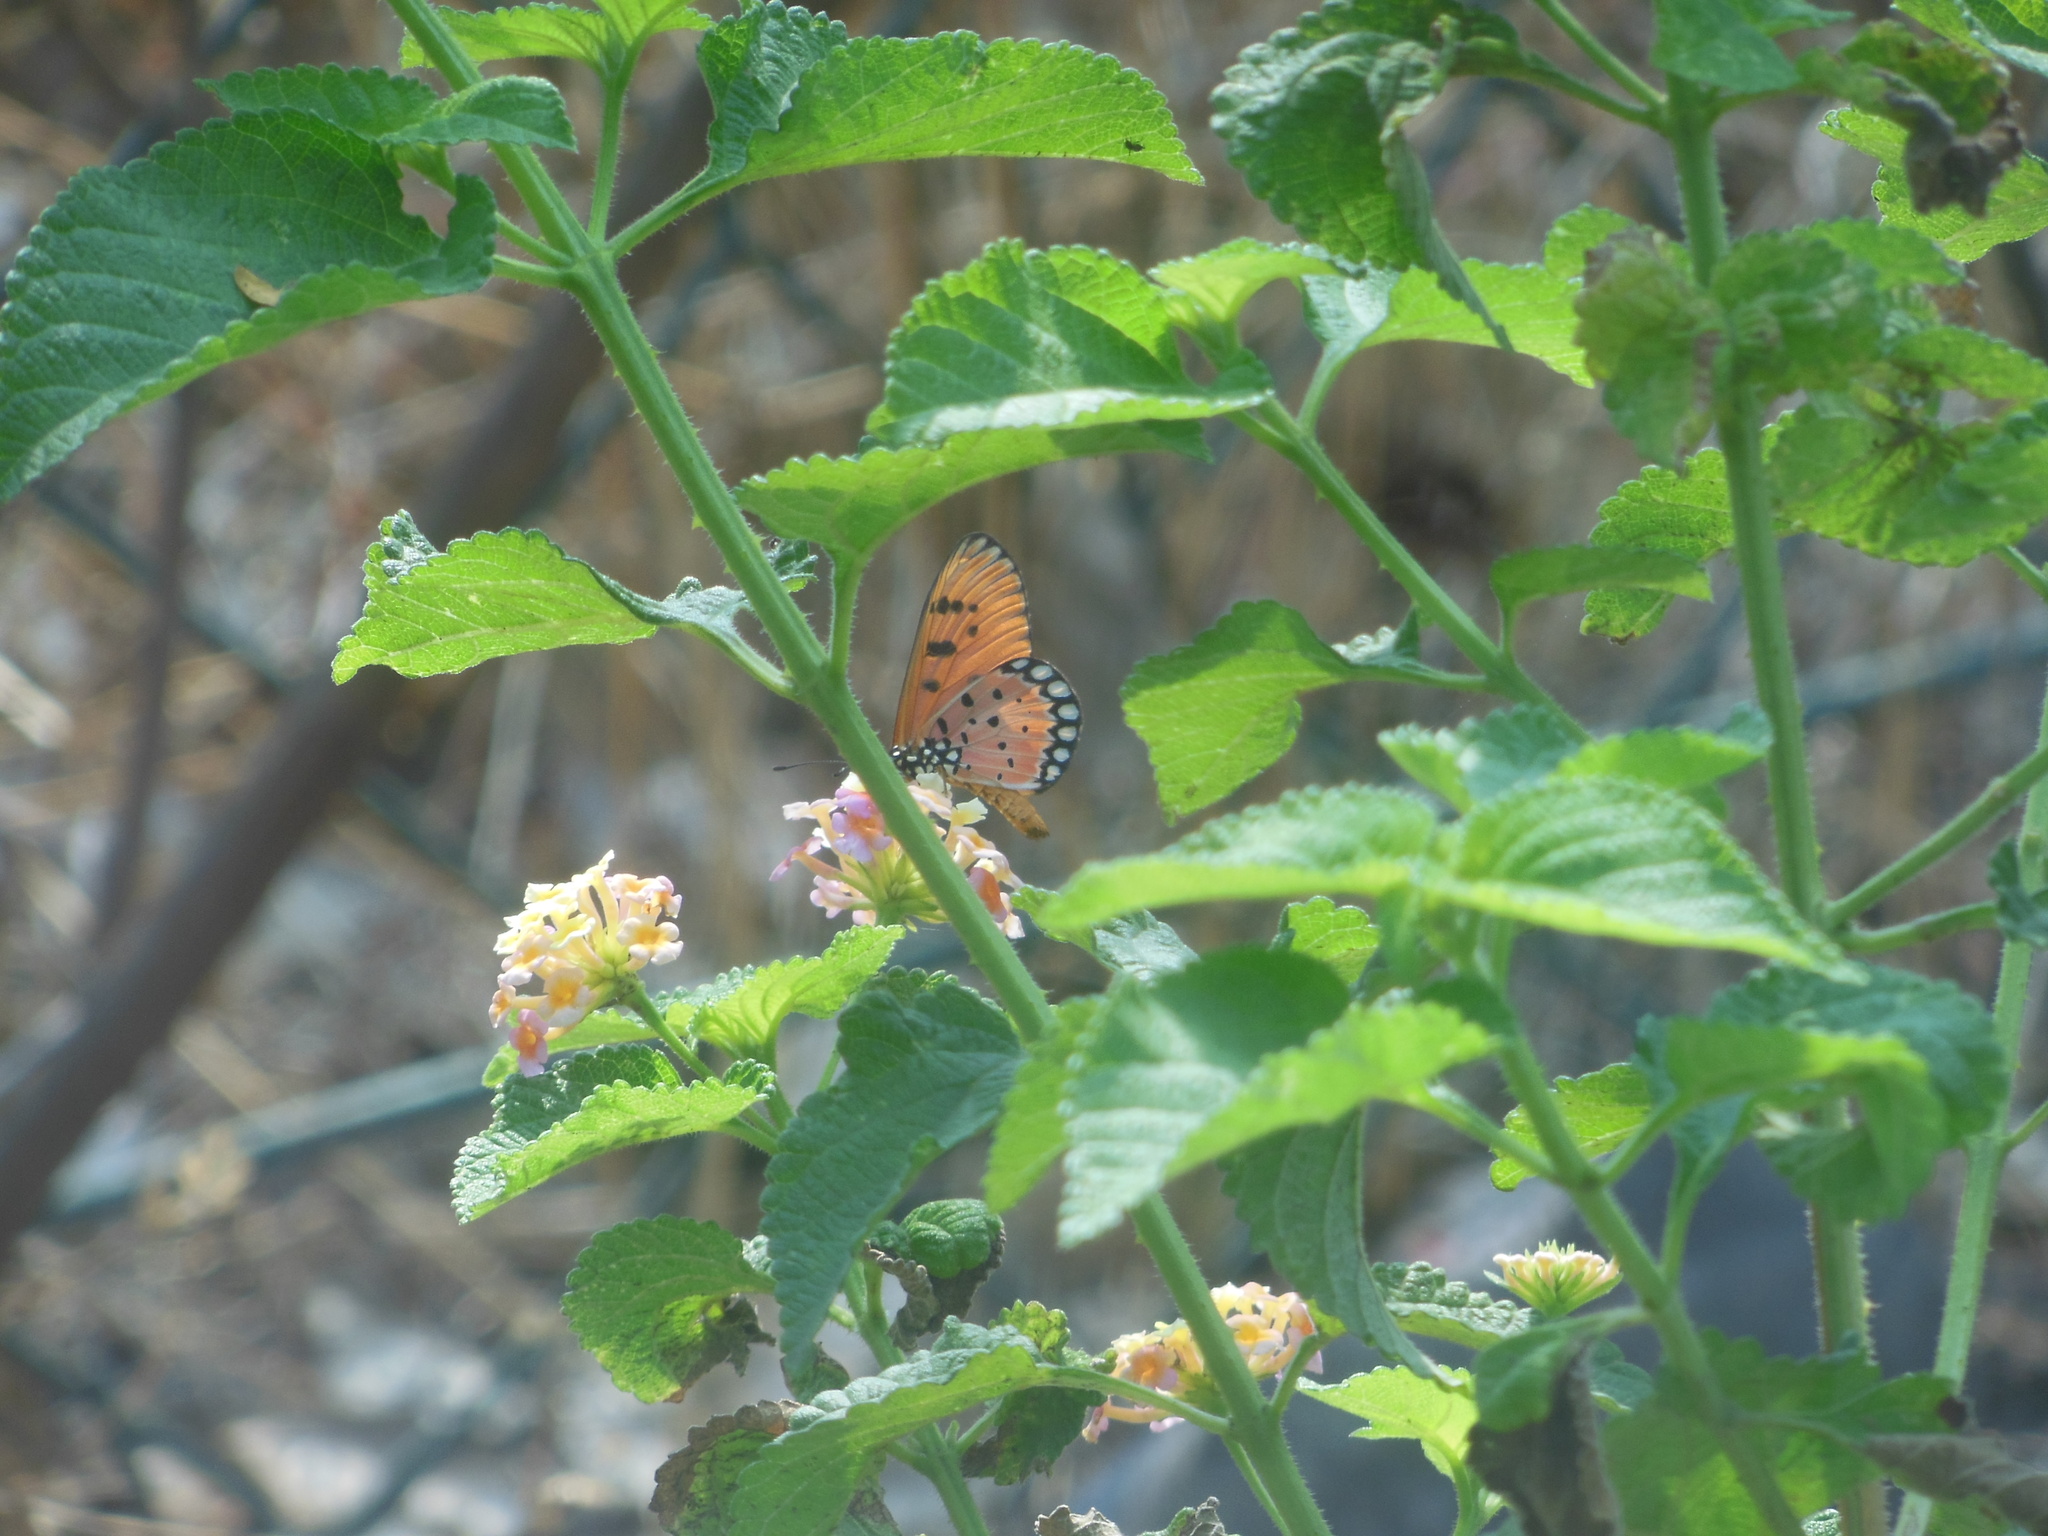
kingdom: Animalia
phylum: Arthropoda
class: Insecta
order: Lepidoptera
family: Nymphalidae
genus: Acraea
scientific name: Acraea terpsicore
